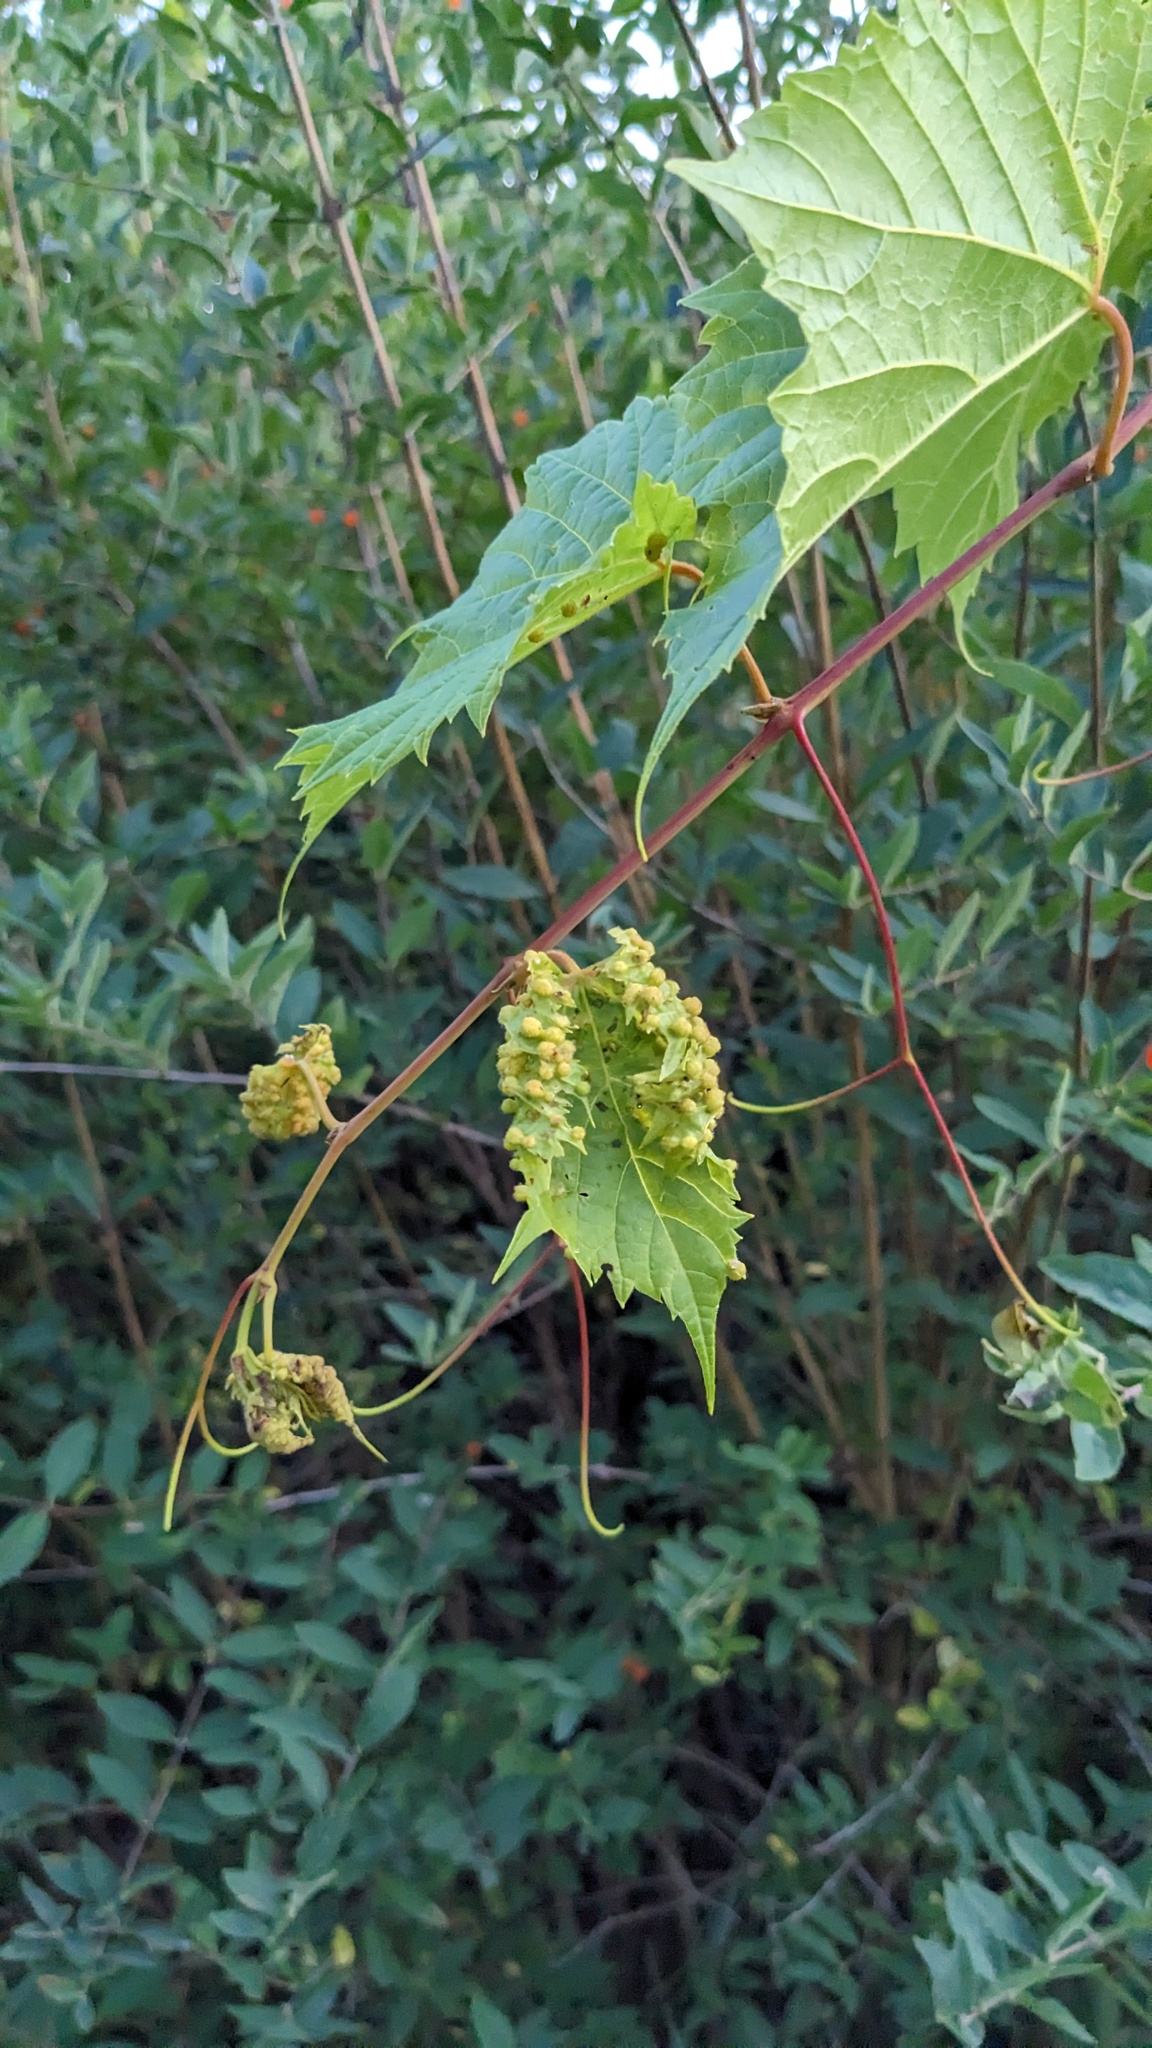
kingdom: Animalia
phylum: Arthropoda
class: Insecta
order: Hemiptera
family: Phylloxeridae
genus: Daktulosphaira
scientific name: Daktulosphaira vitifoliae
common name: Grape phylloxera
